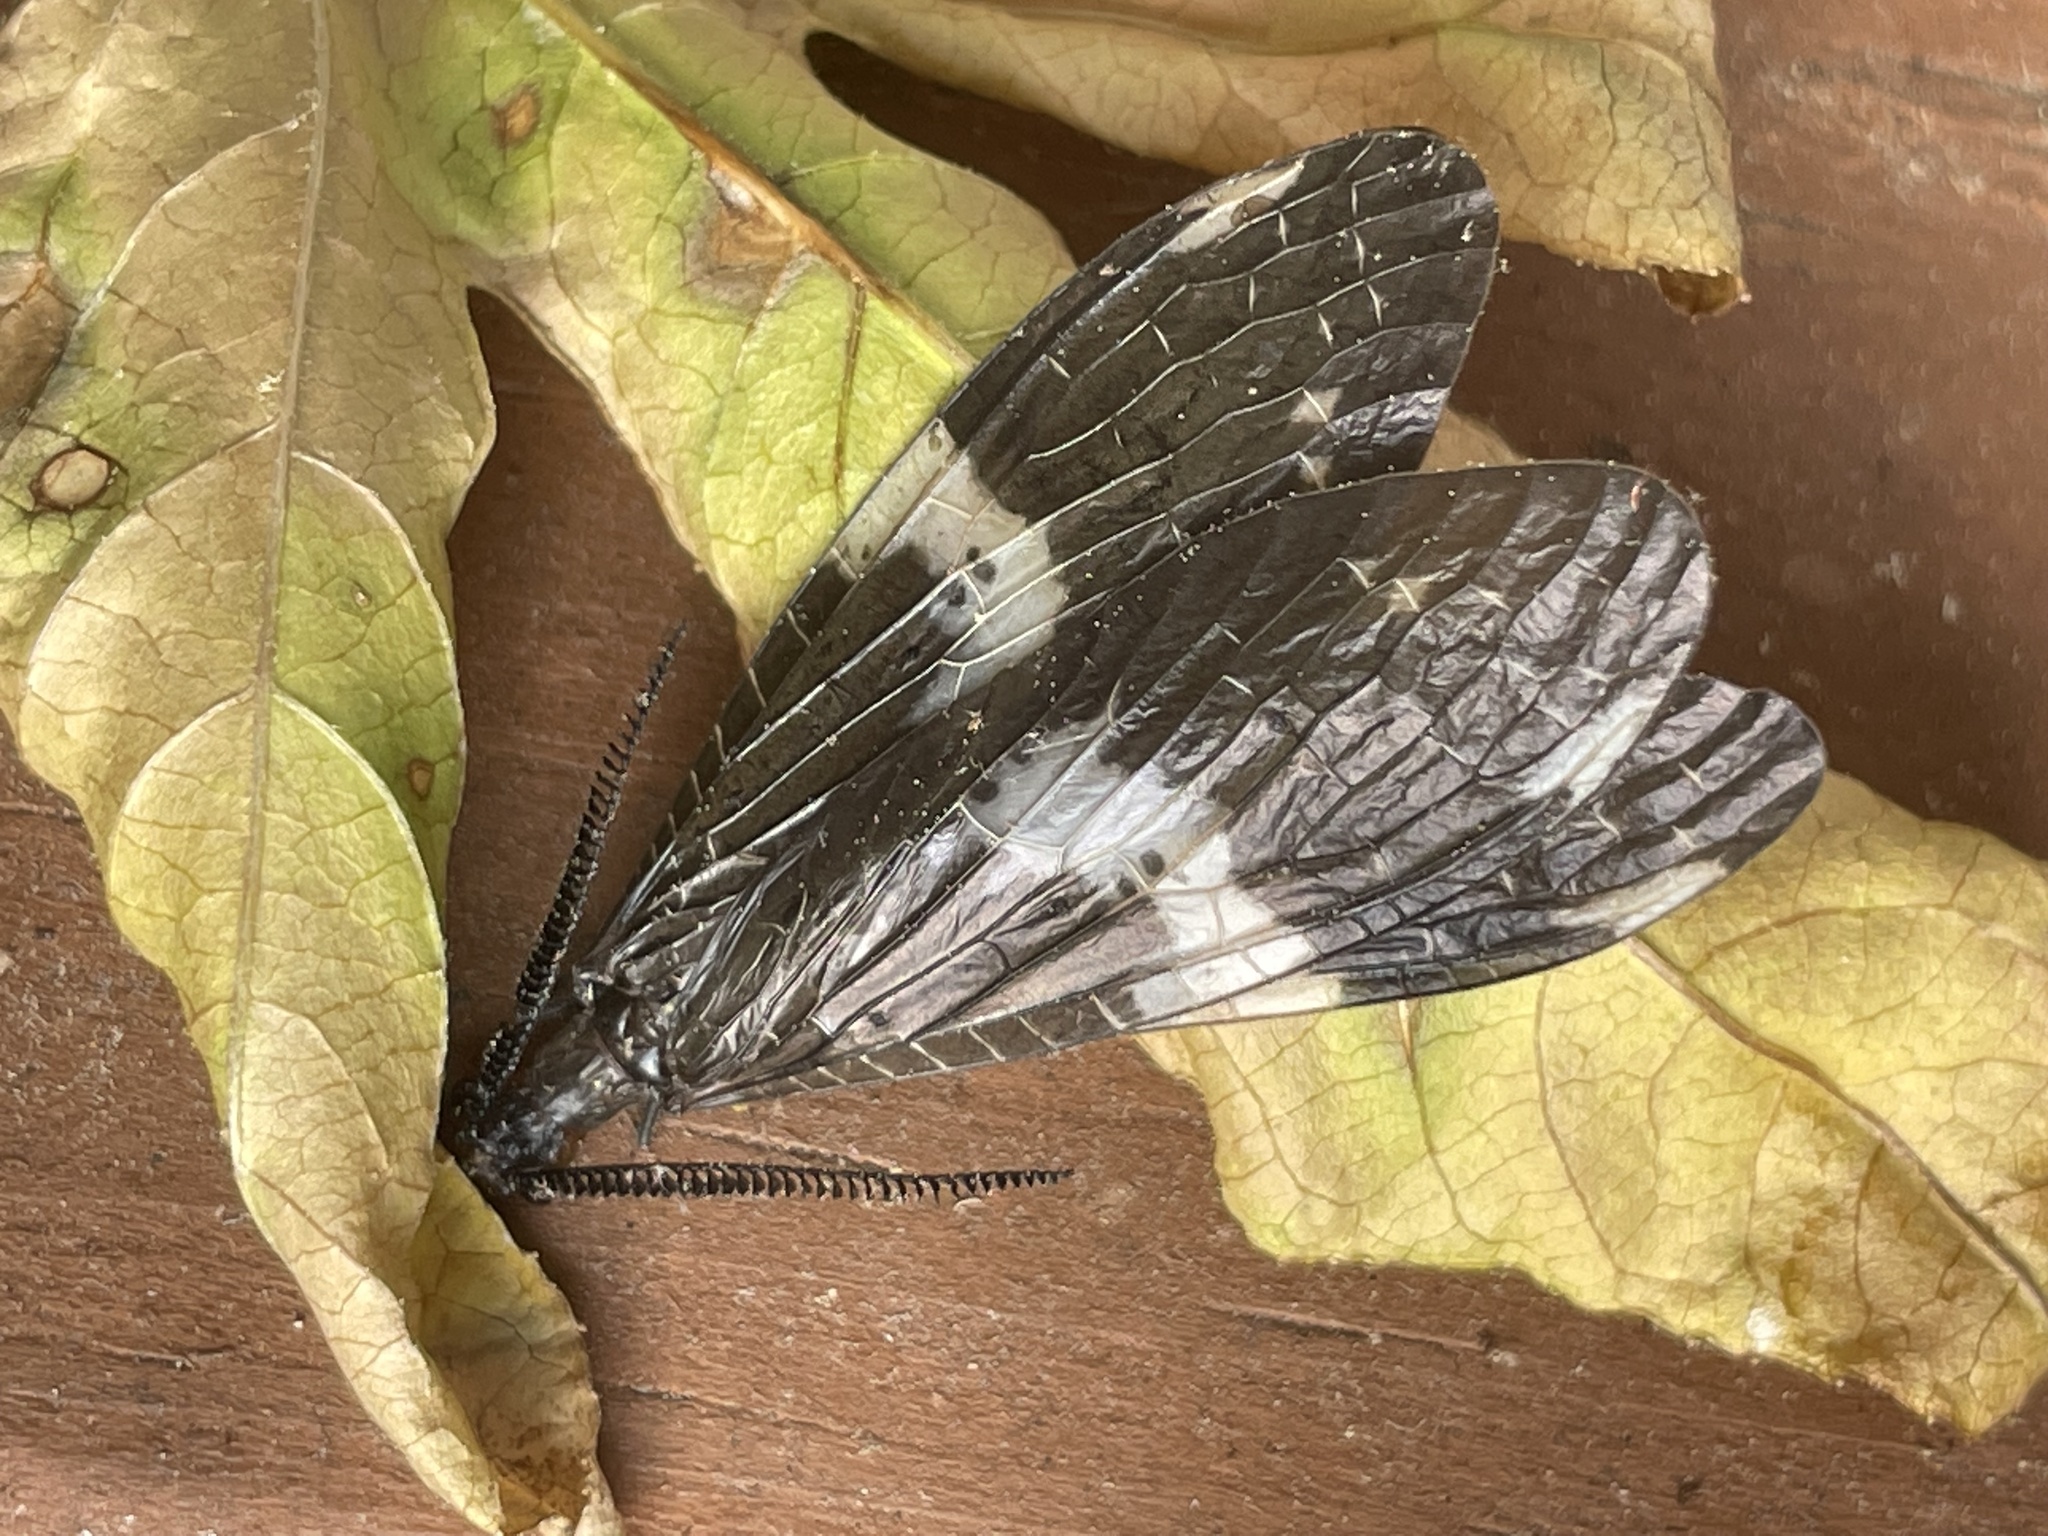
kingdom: Animalia
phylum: Arthropoda
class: Insecta
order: Megaloptera
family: Corydalidae
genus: Nigronia
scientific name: Nigronia fasciata
